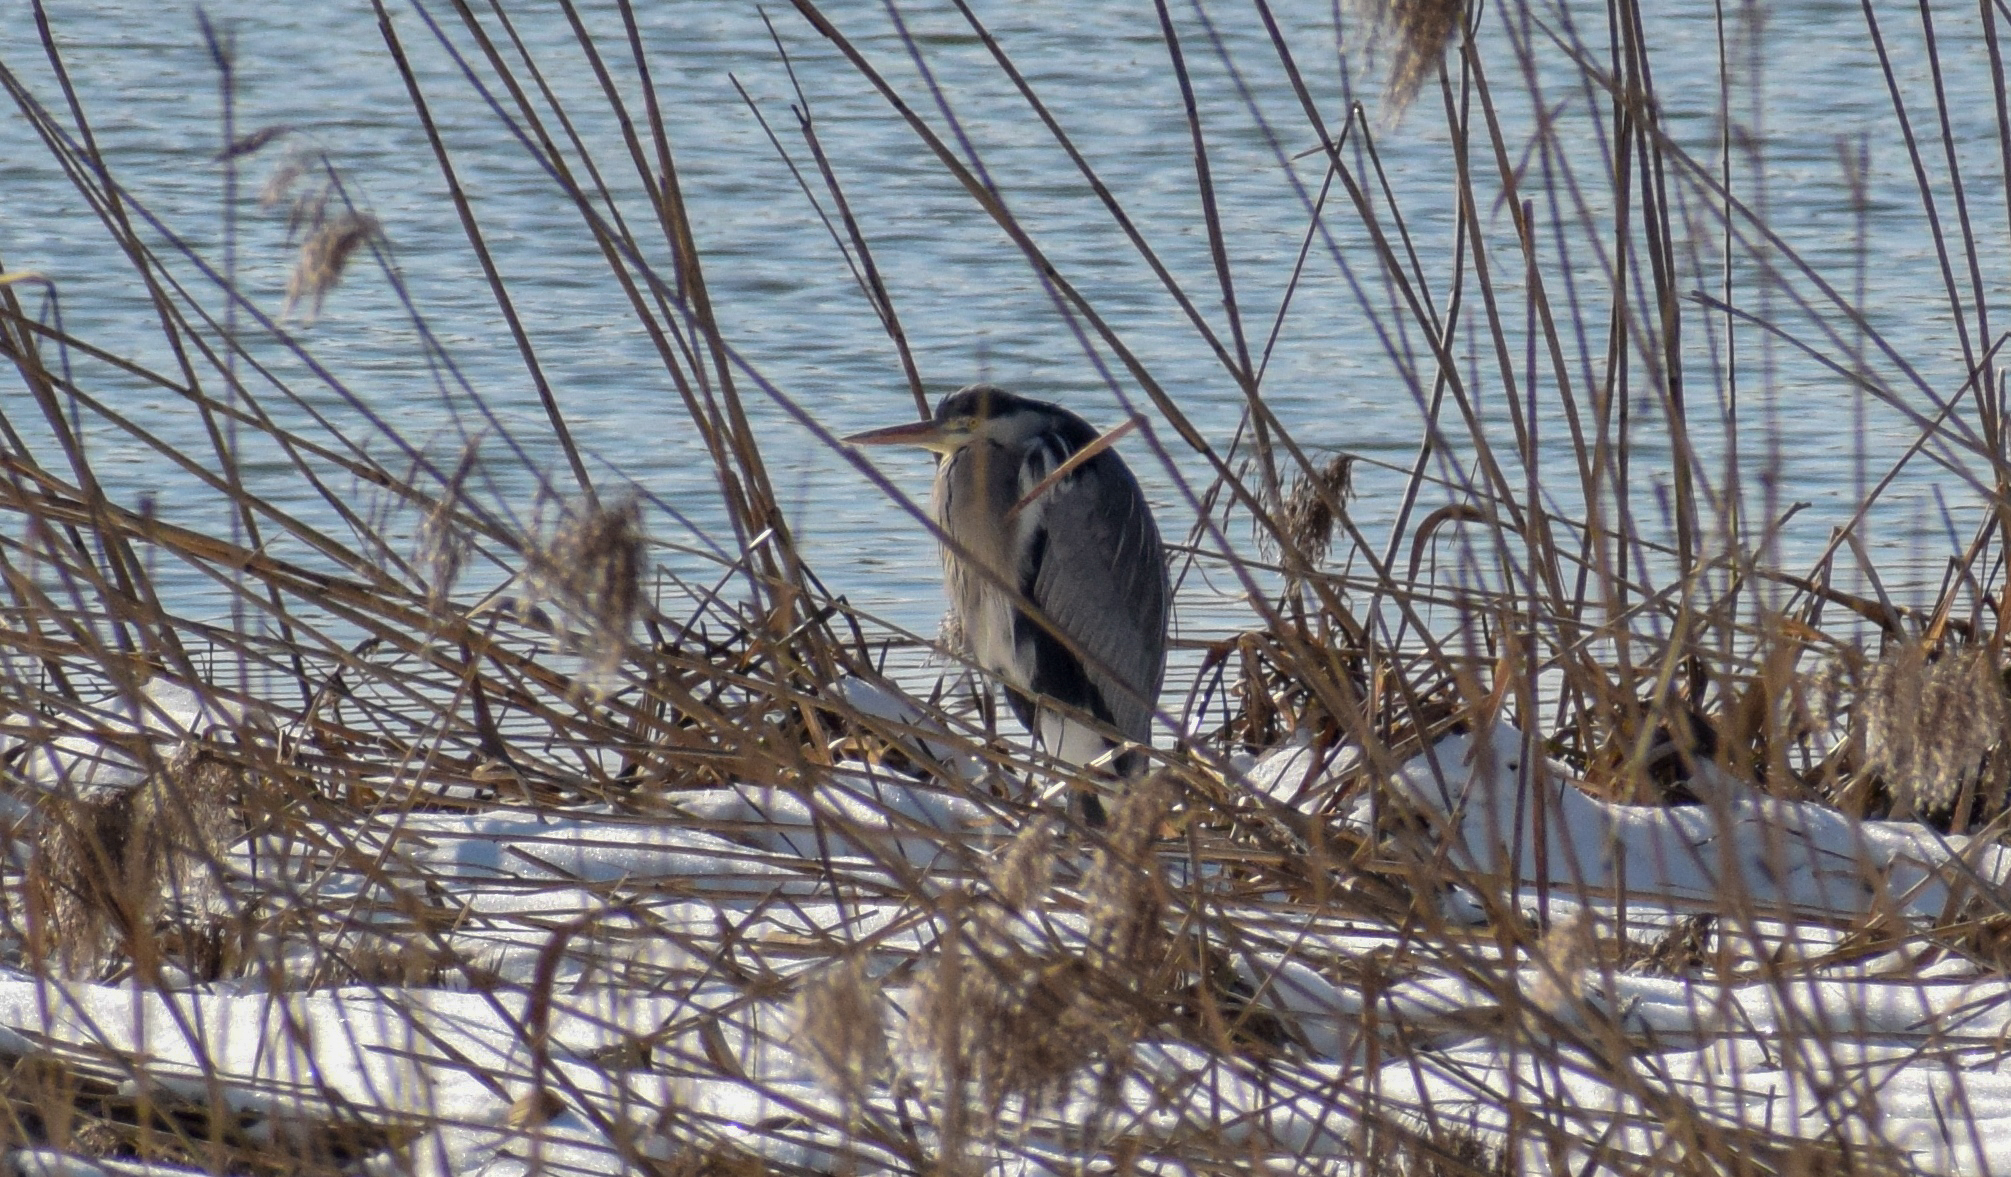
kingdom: Animalia
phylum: Chordata
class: Aves
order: Pelecaniformes
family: Ardeidae
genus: Ardea
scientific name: Ardea cinerea
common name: Grey heron
